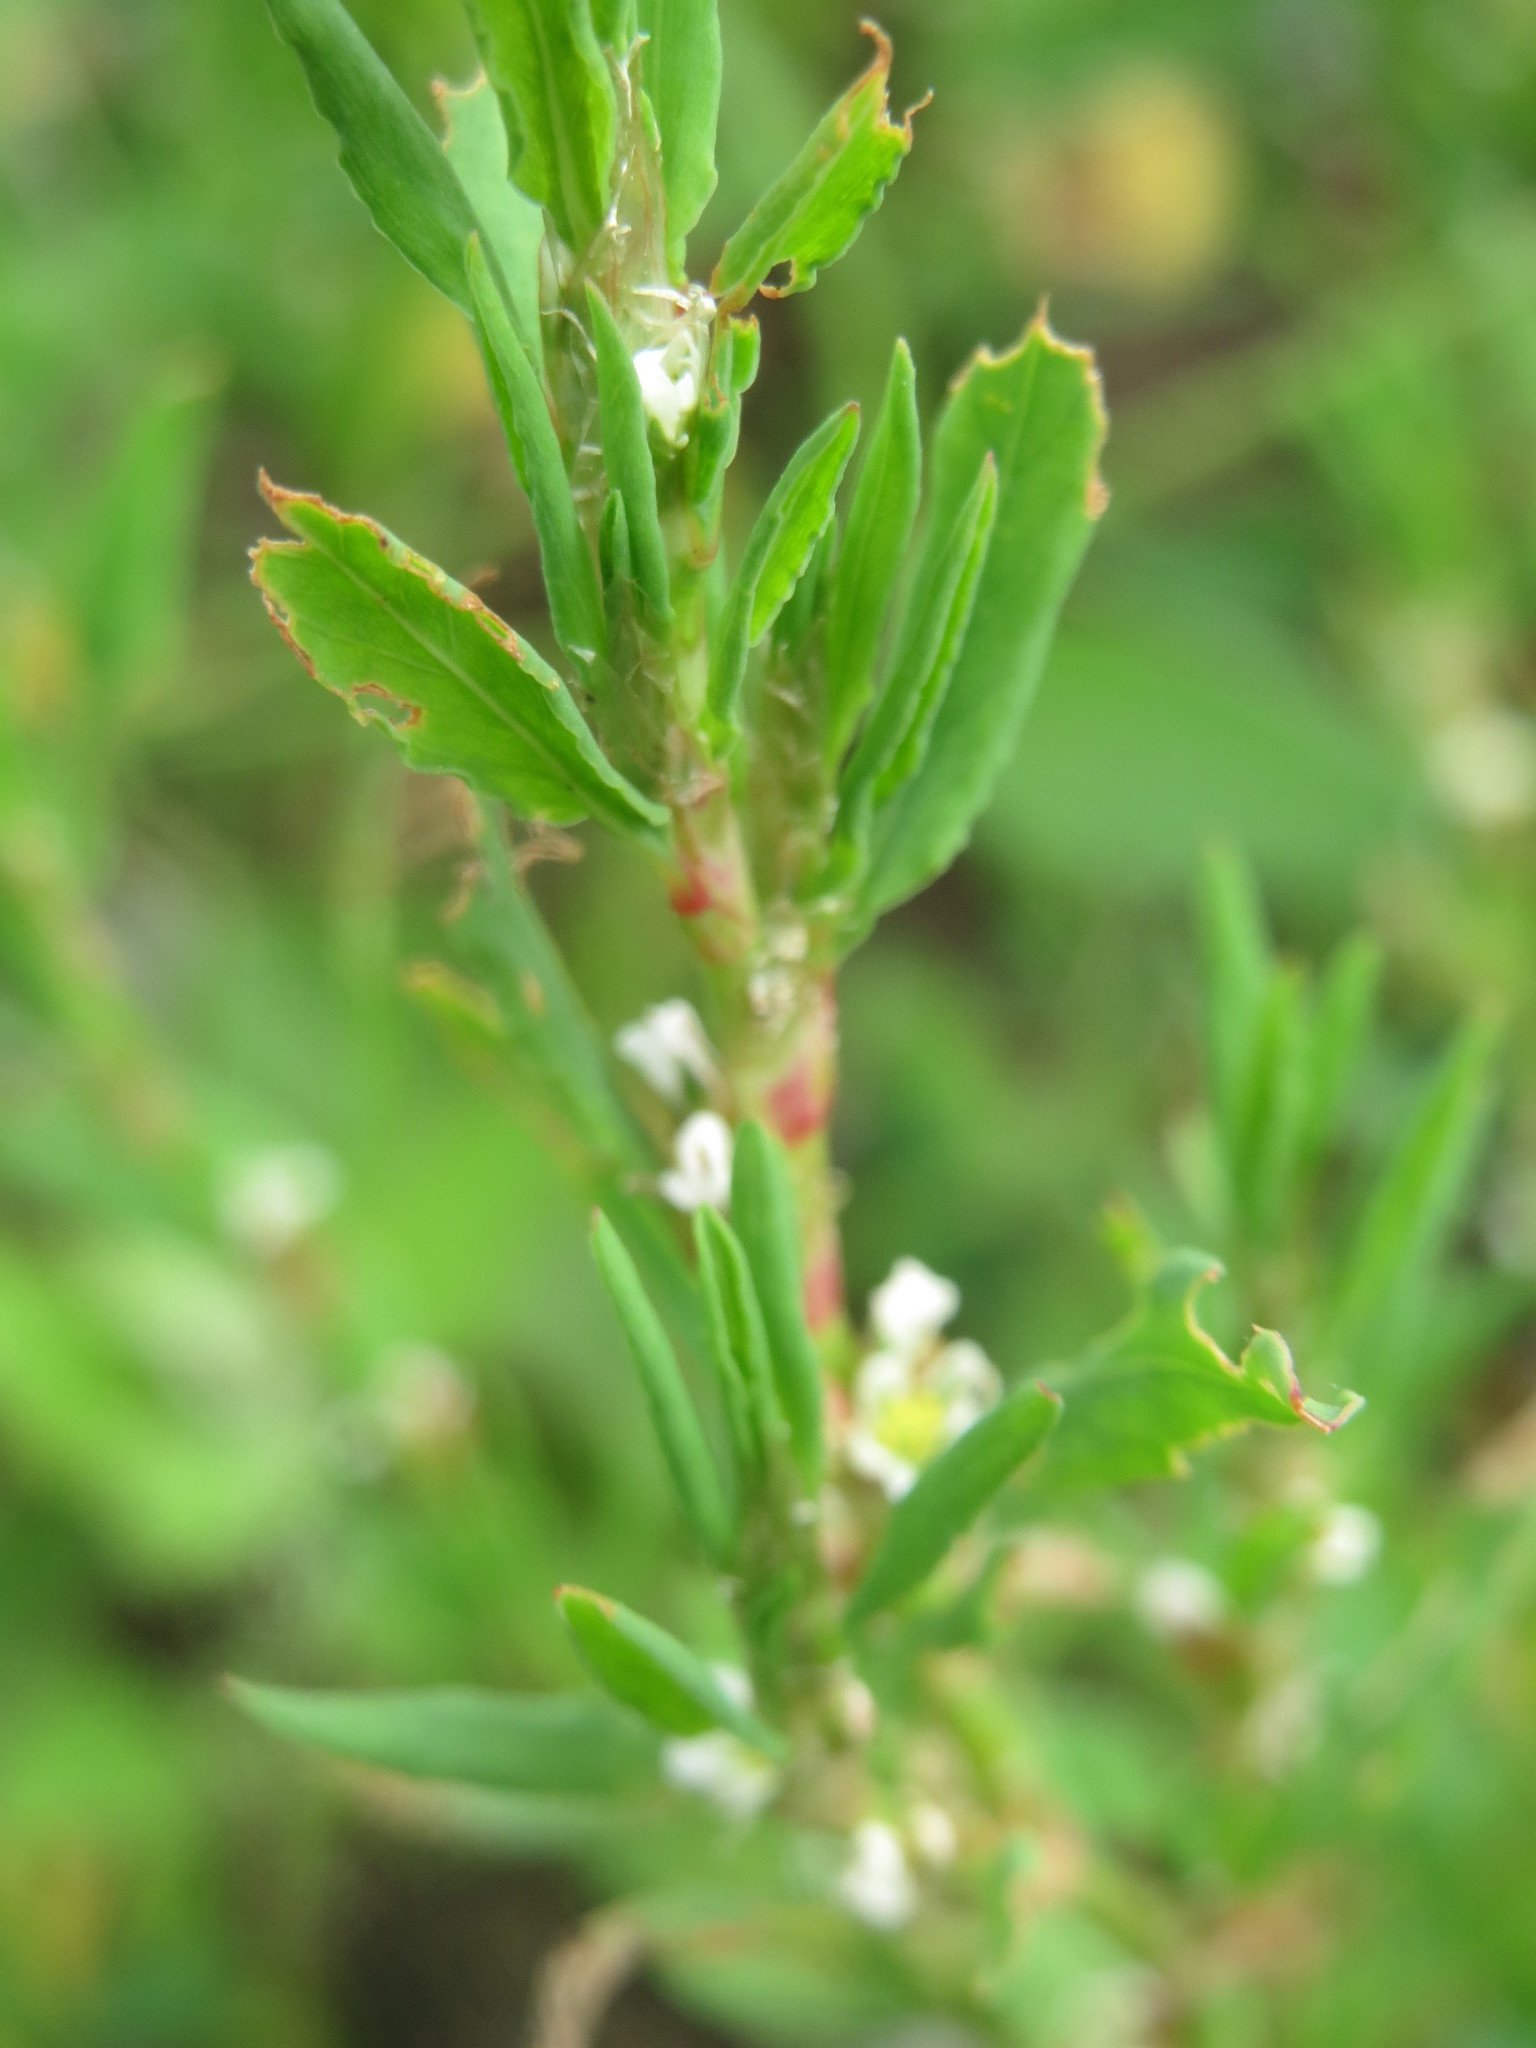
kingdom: Plantae
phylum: Tracheophyta
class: Magnoliopsida
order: Caryophyllales
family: Polygonaceae
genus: Polygonum
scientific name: Polygonum aviculare
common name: Prostrate knotweed
